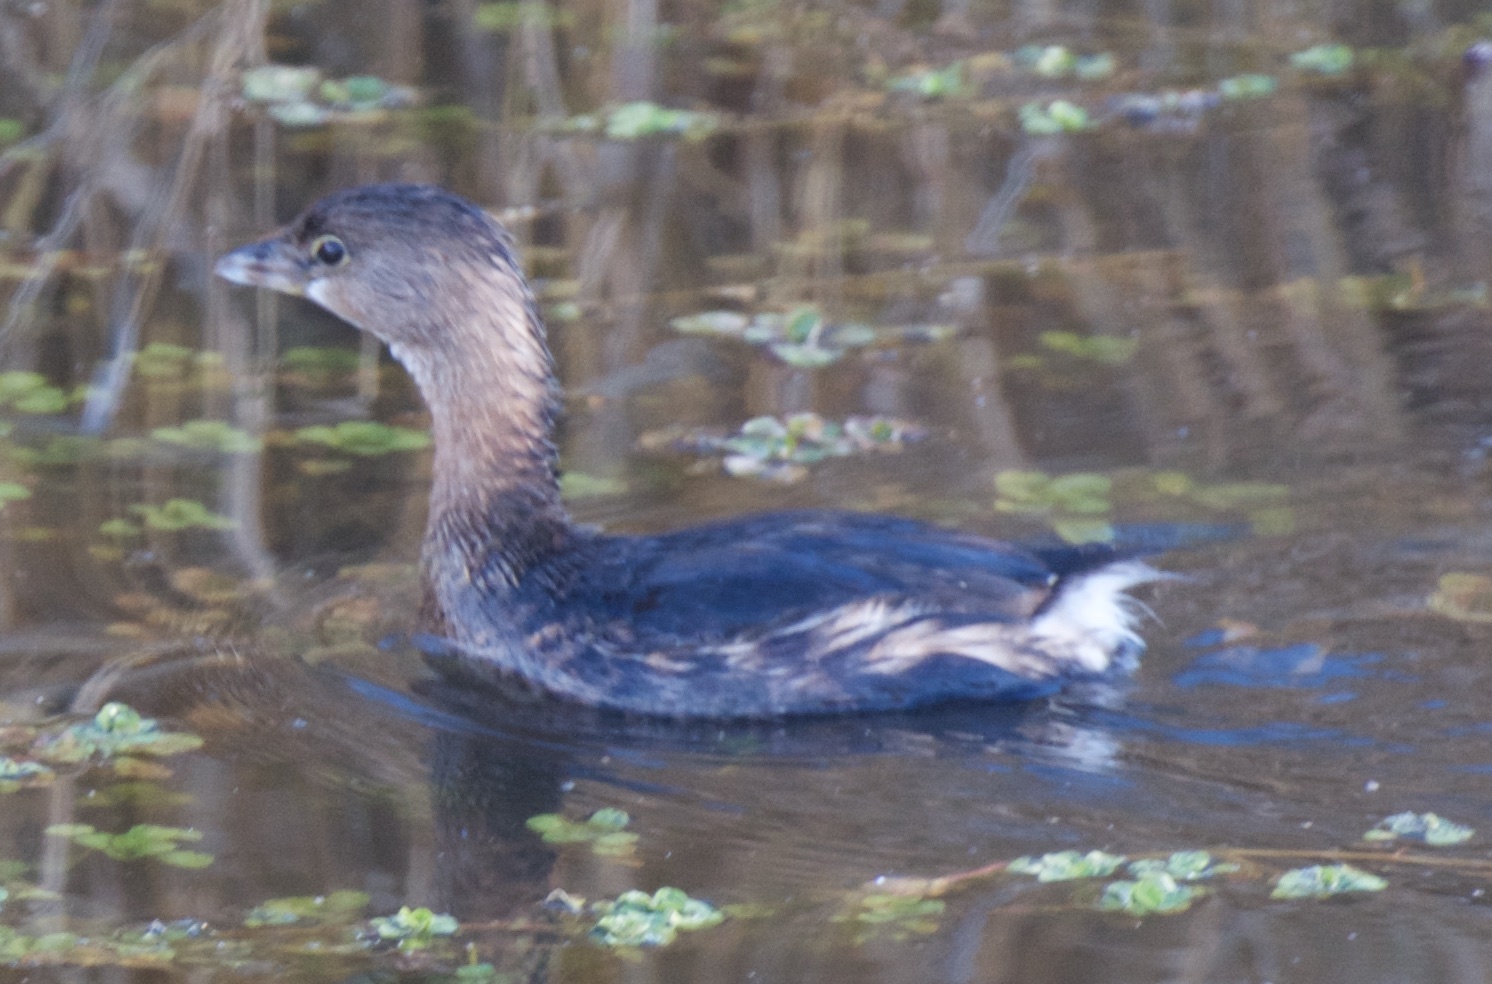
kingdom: Animalia
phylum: Chordata
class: Aves
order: Podicipediformes
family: Podicipedidae
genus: Podilymbus
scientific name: Podilymbus podiceps
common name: Pied-billed grebe
